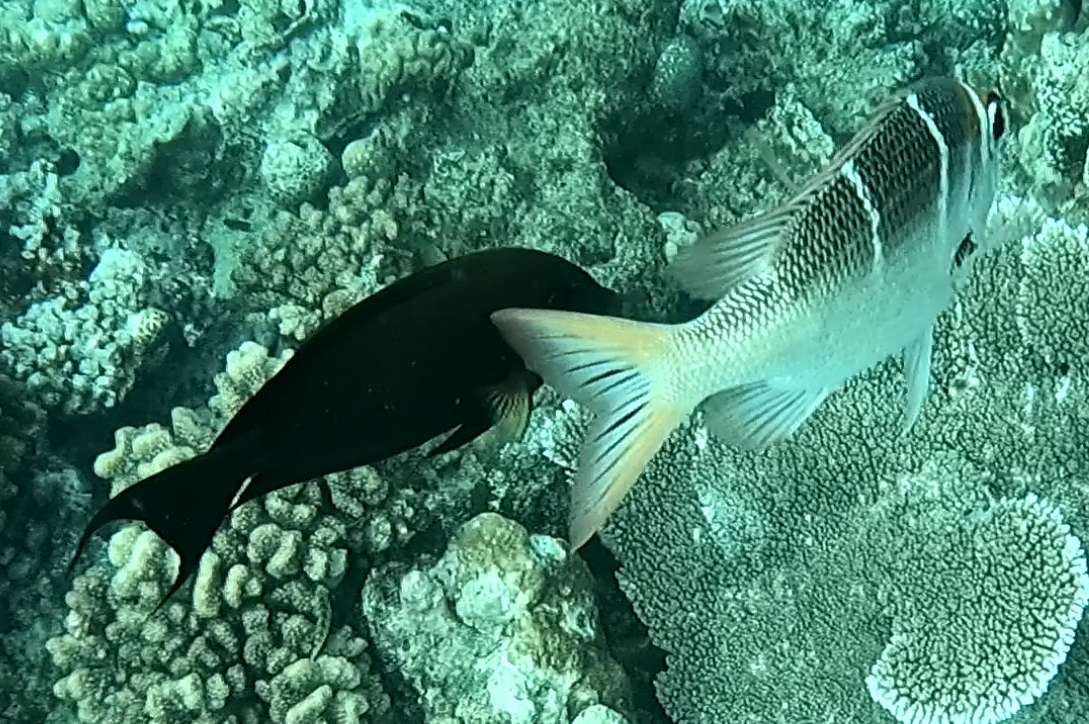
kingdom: Animalia
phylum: Chordata
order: Perciformes
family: Acanthuridae
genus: Ctenochaetus
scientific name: Ctenochaetus striatus
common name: Bristle-toothed surgeonfish
